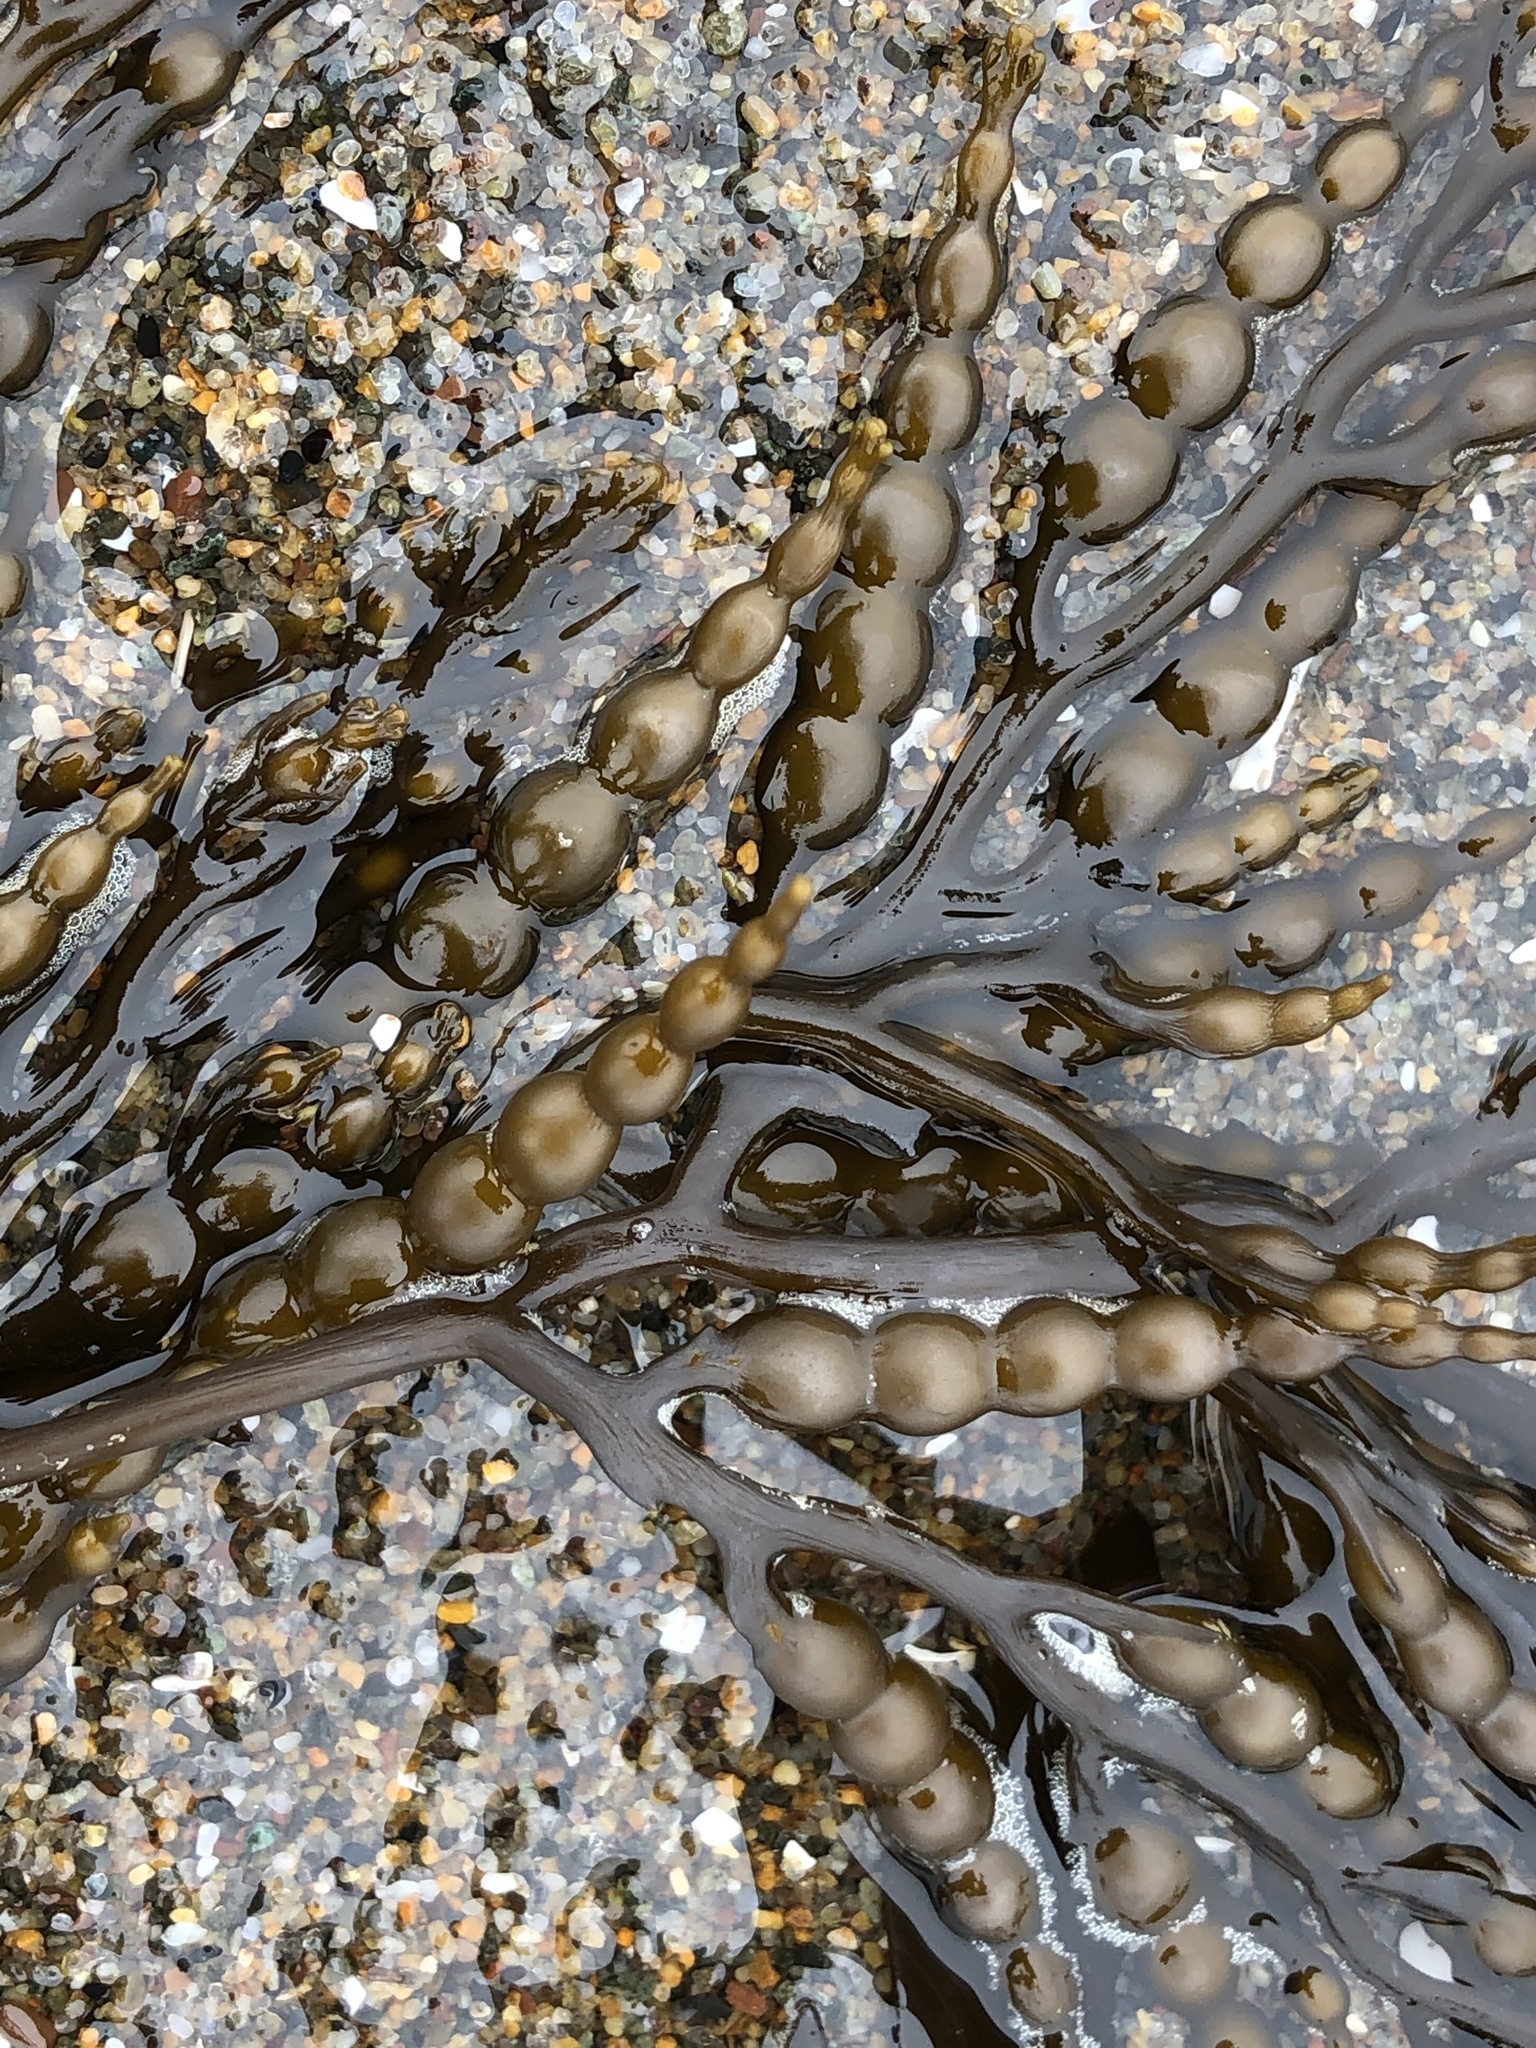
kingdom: Chromista
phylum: Ochrophyta
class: Phaeophyceae
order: Fucales
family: Sargassaceae
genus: Stephanocystis
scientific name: Stephanocystis
